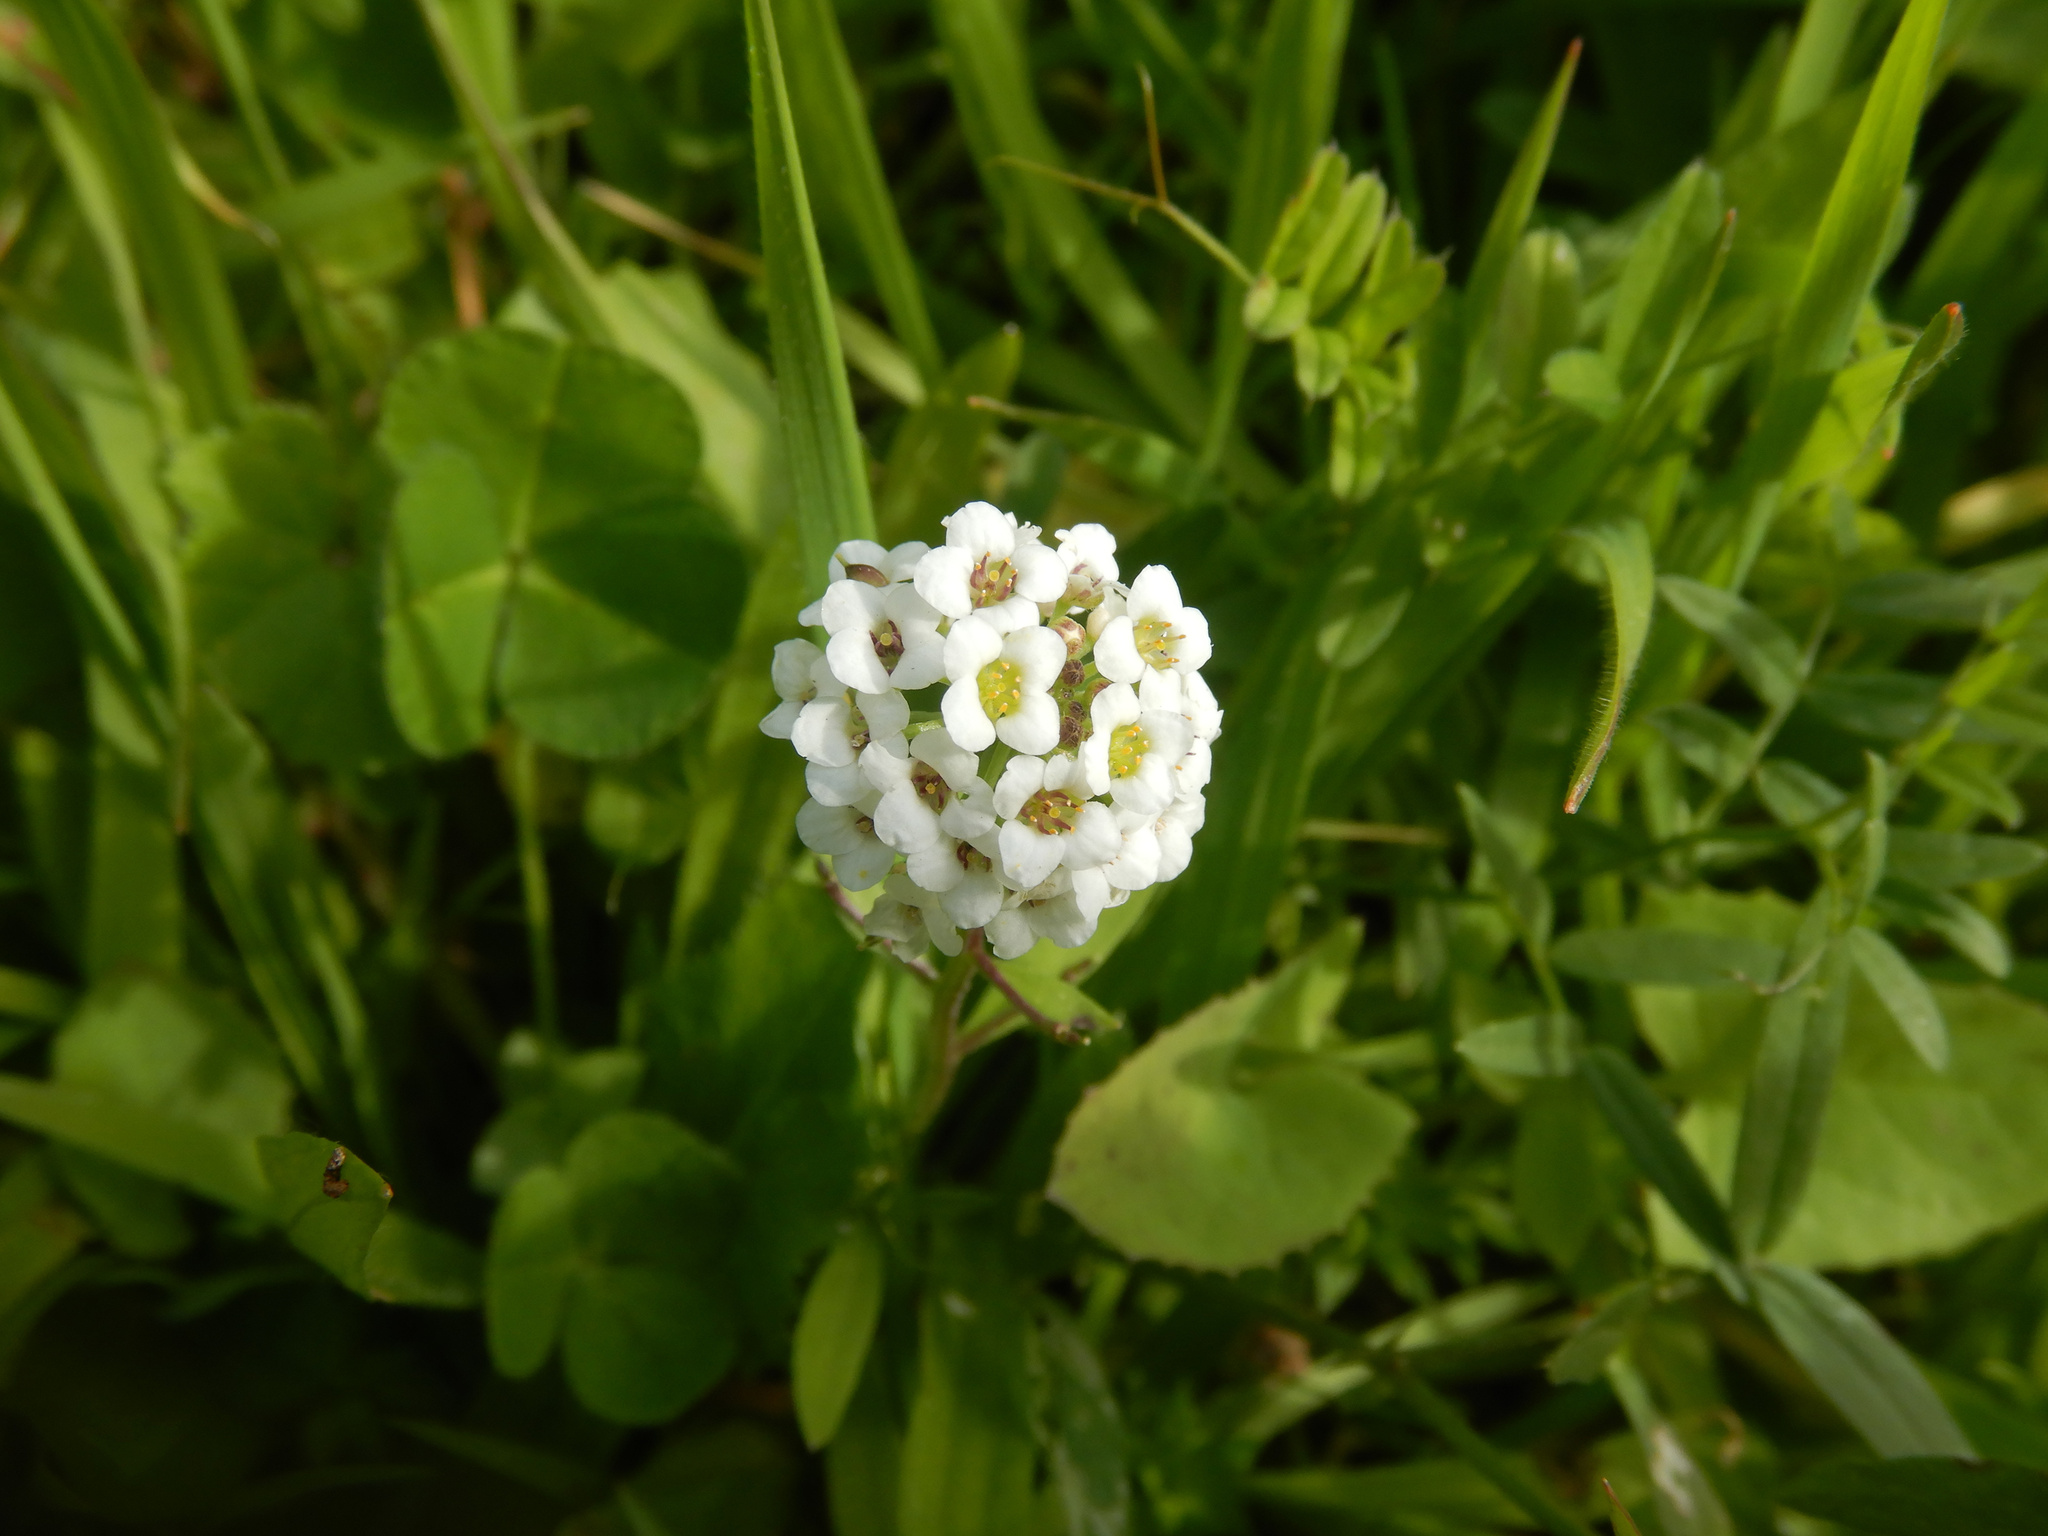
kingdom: Plantae
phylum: Tracheophyta
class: Magnoliopsida
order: Brassicales
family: Brassicaceae
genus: Lobularia
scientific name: Lobularia maritima
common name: Sweet alison
